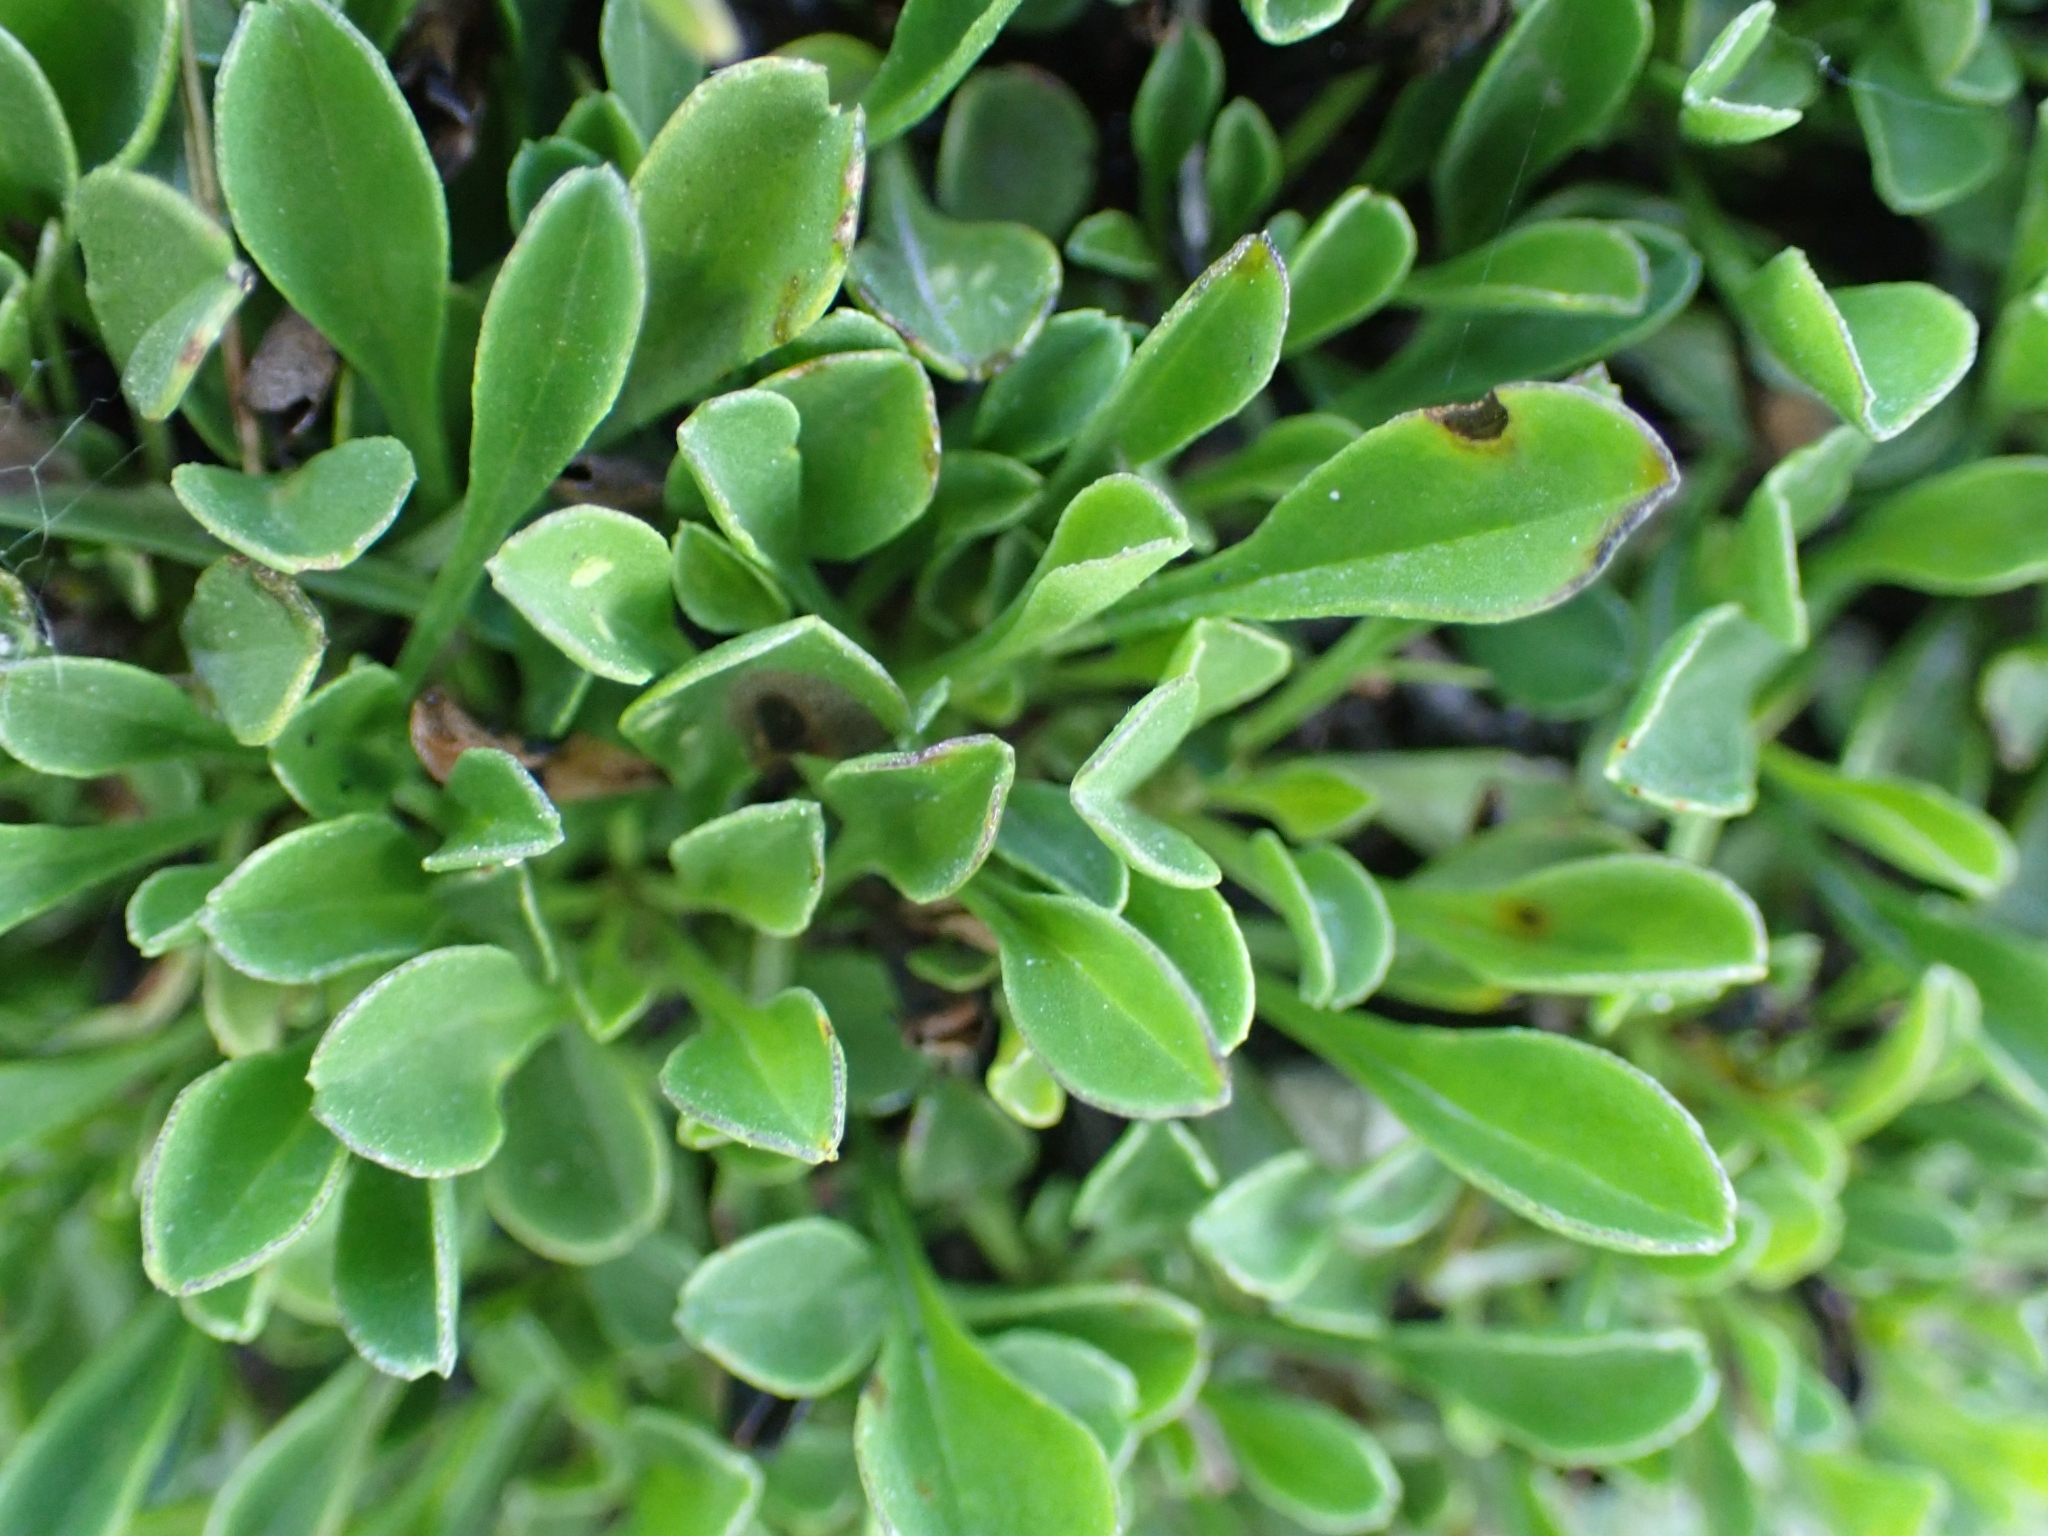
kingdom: Plantae
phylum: Tracheophyta
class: Magnoliopsida
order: Lamiales
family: Plantaginaceae
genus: Globularia
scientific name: Globularia cordifolia
